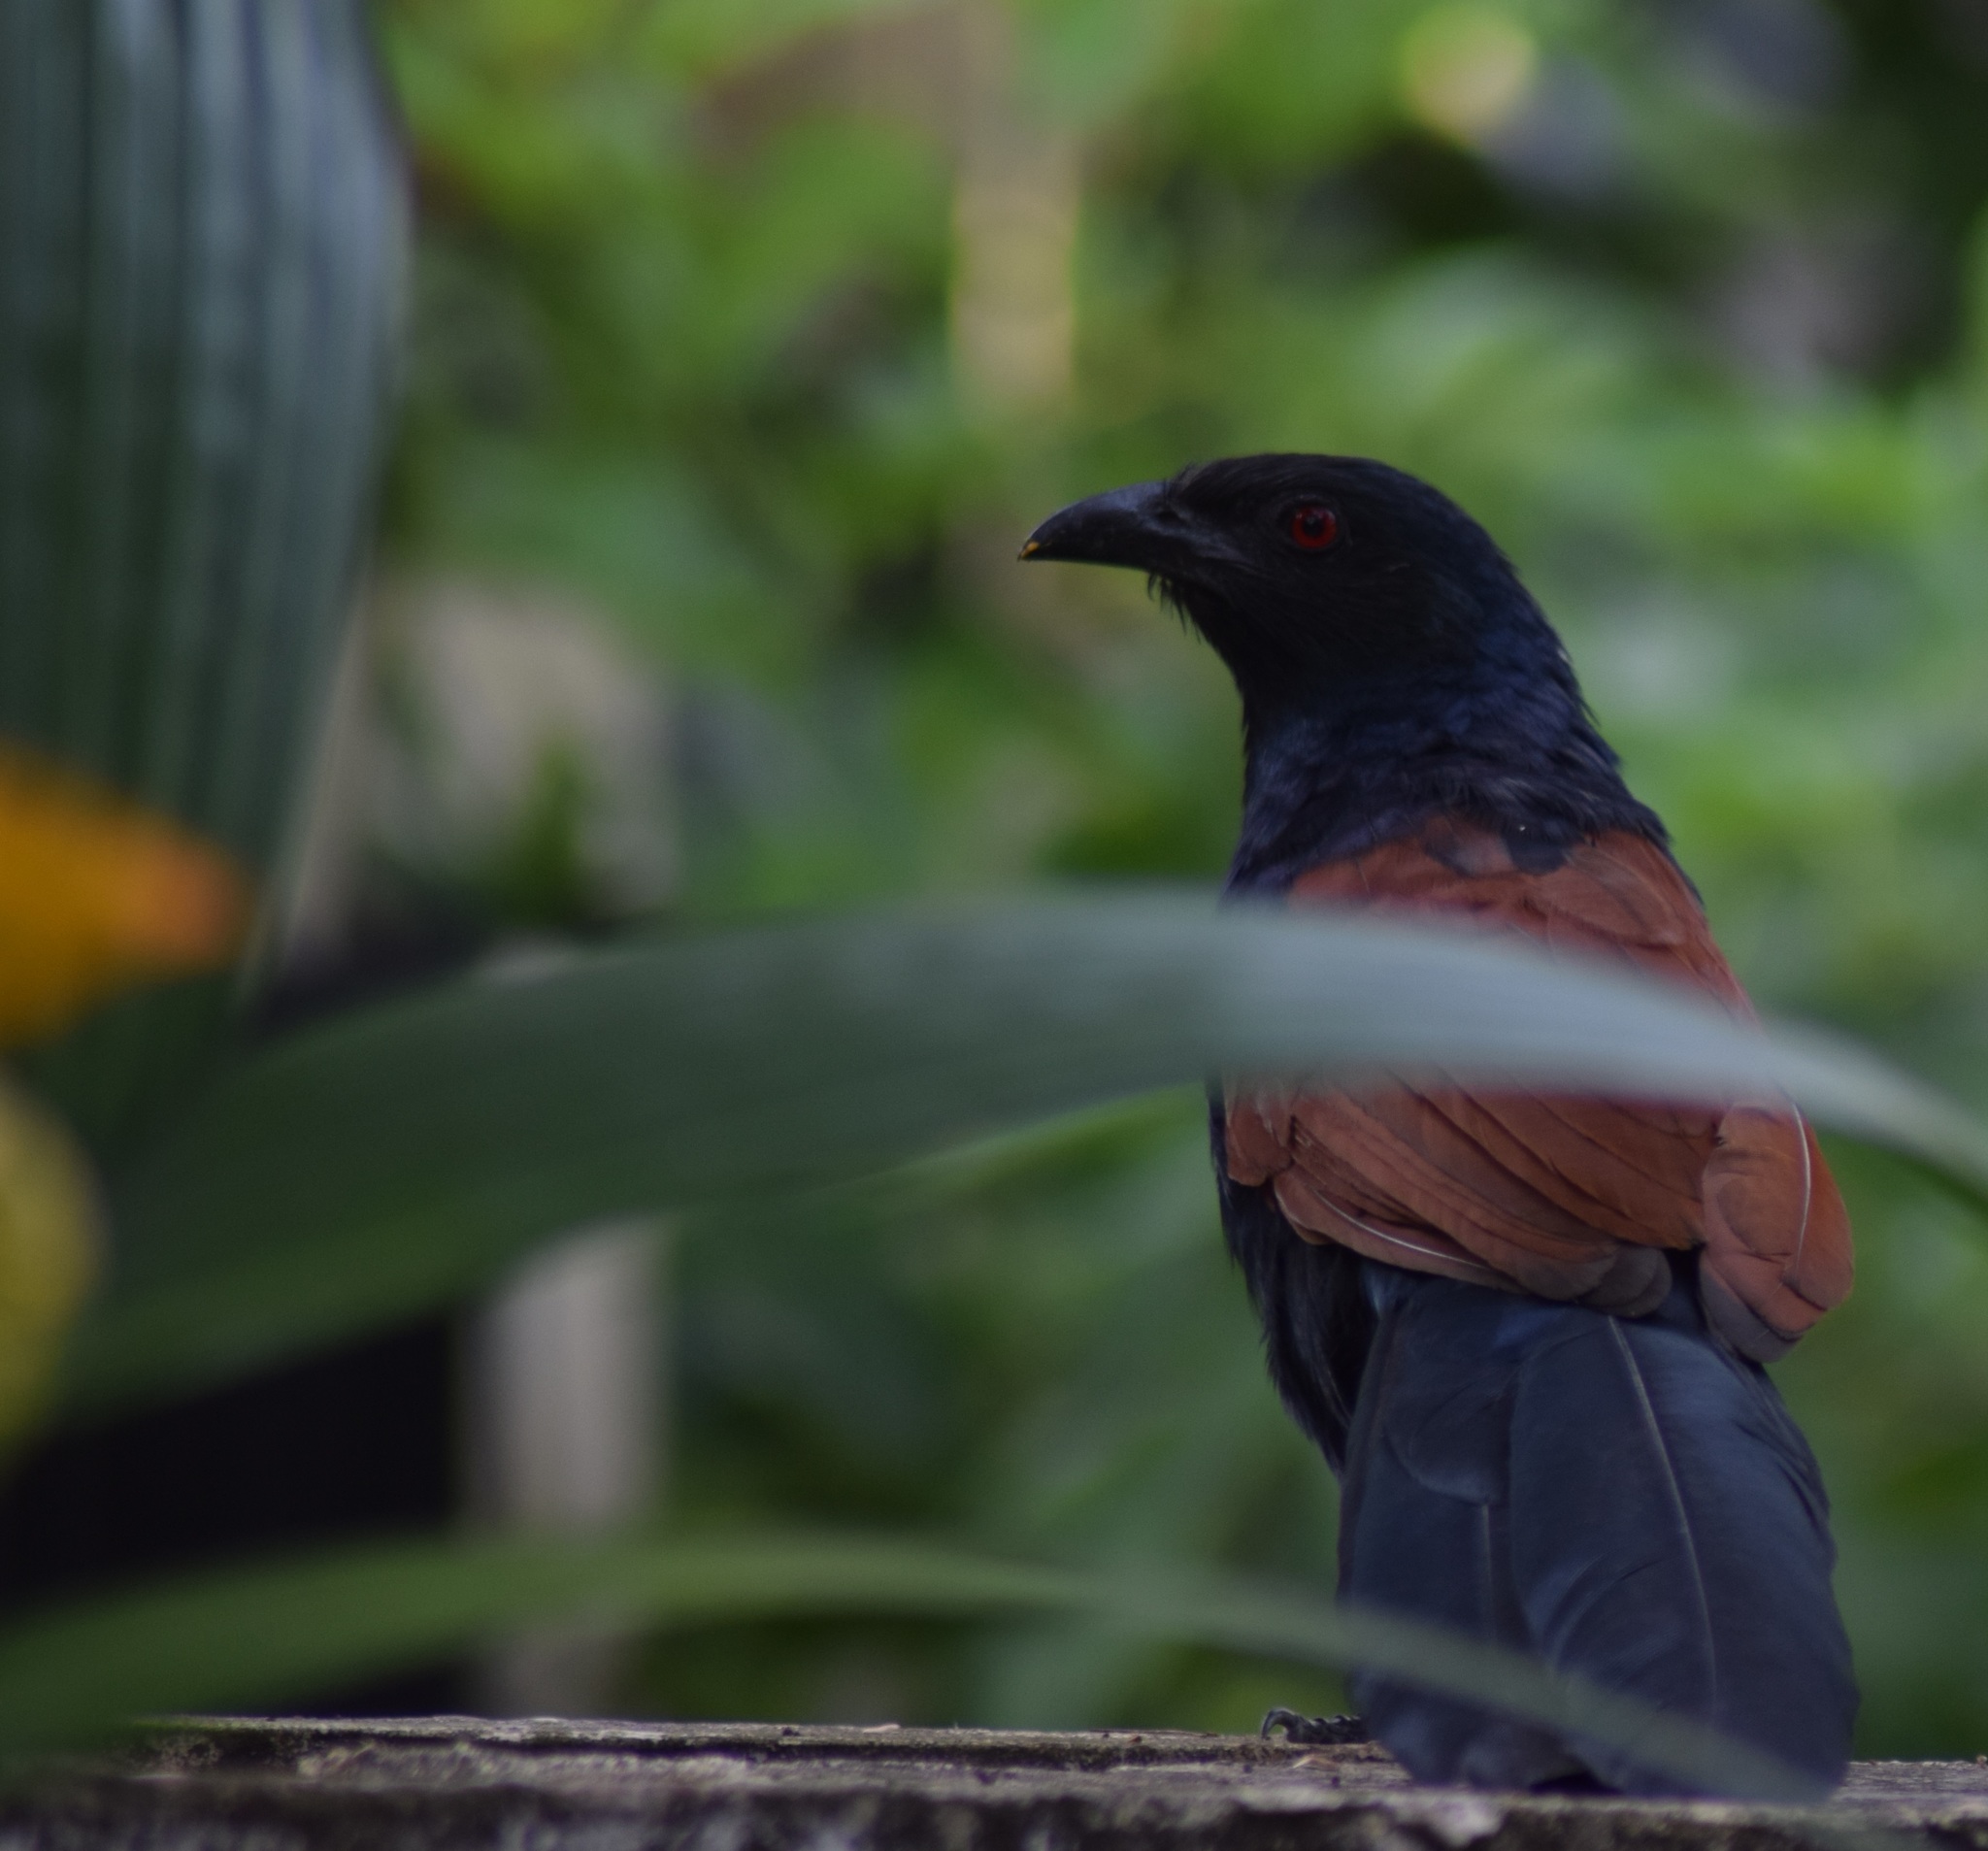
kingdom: Animalia
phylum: Chordata
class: Aves
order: Cuculiformes
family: Cuculidae
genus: Centropus
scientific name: Centropus sinensis
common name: Greater coucal
